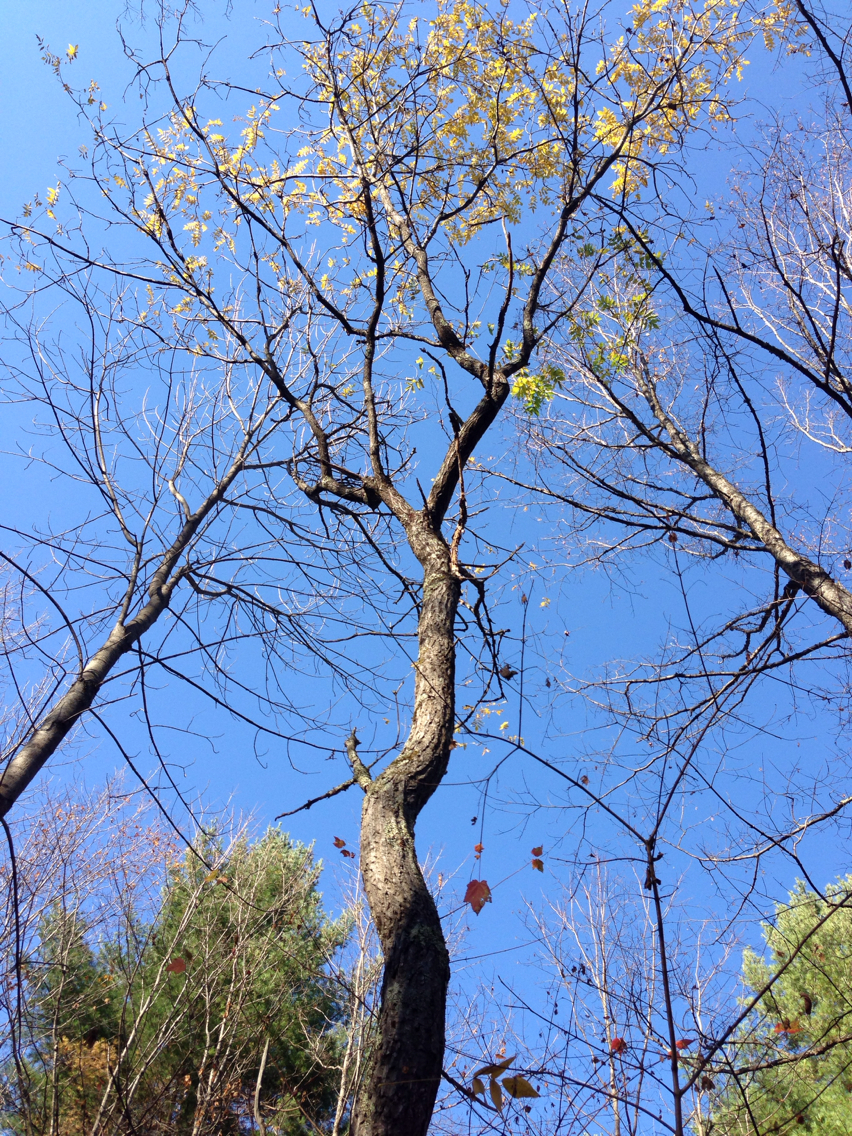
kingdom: Plantae
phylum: Tracheophyta
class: Magnoliopsida
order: Fagales
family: Juglandaceae
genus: Juglans
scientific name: Juglans cinerea
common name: Butternut
